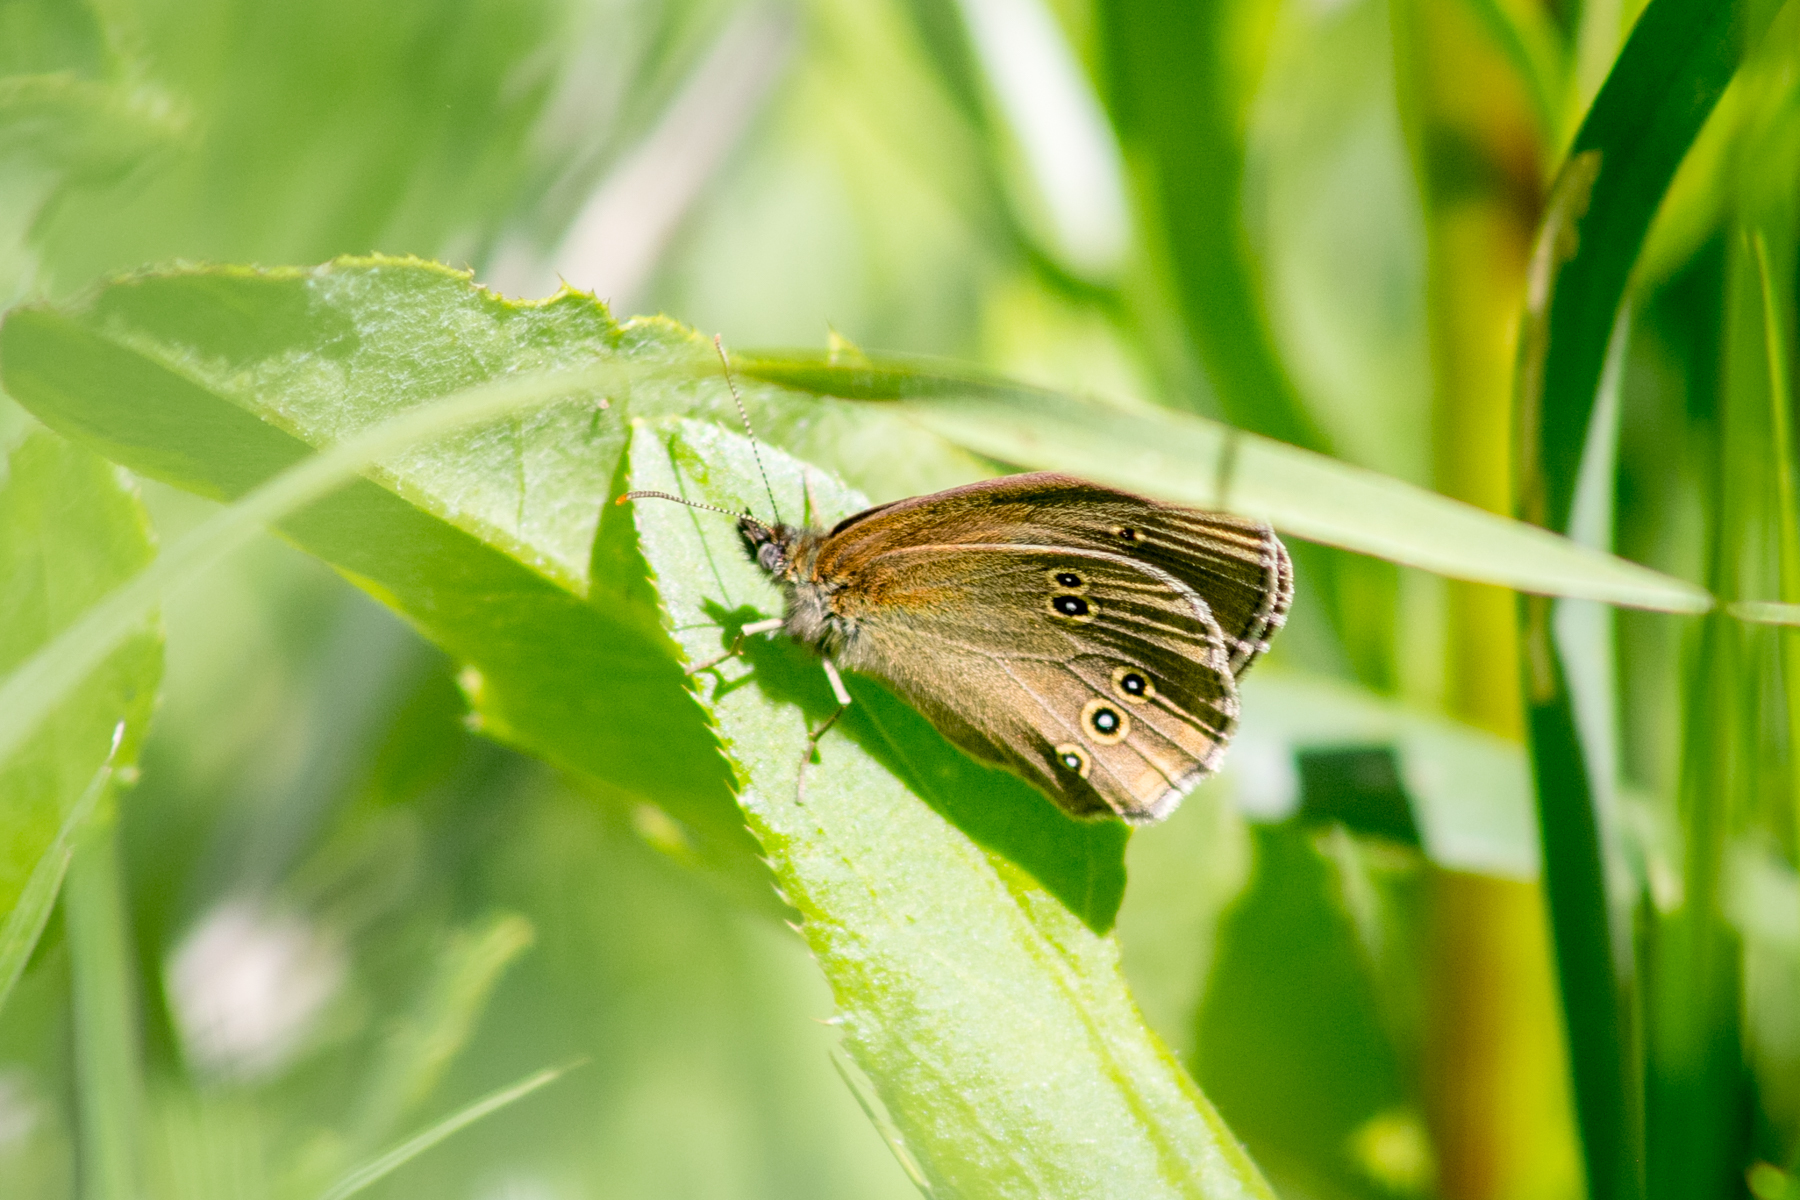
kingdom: Animalia
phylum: Arthropoda
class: Insecta
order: Lepidoptera
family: Nymphalidae
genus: Aphantopus
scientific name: Aphantopus hyperantus
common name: Ringlet
